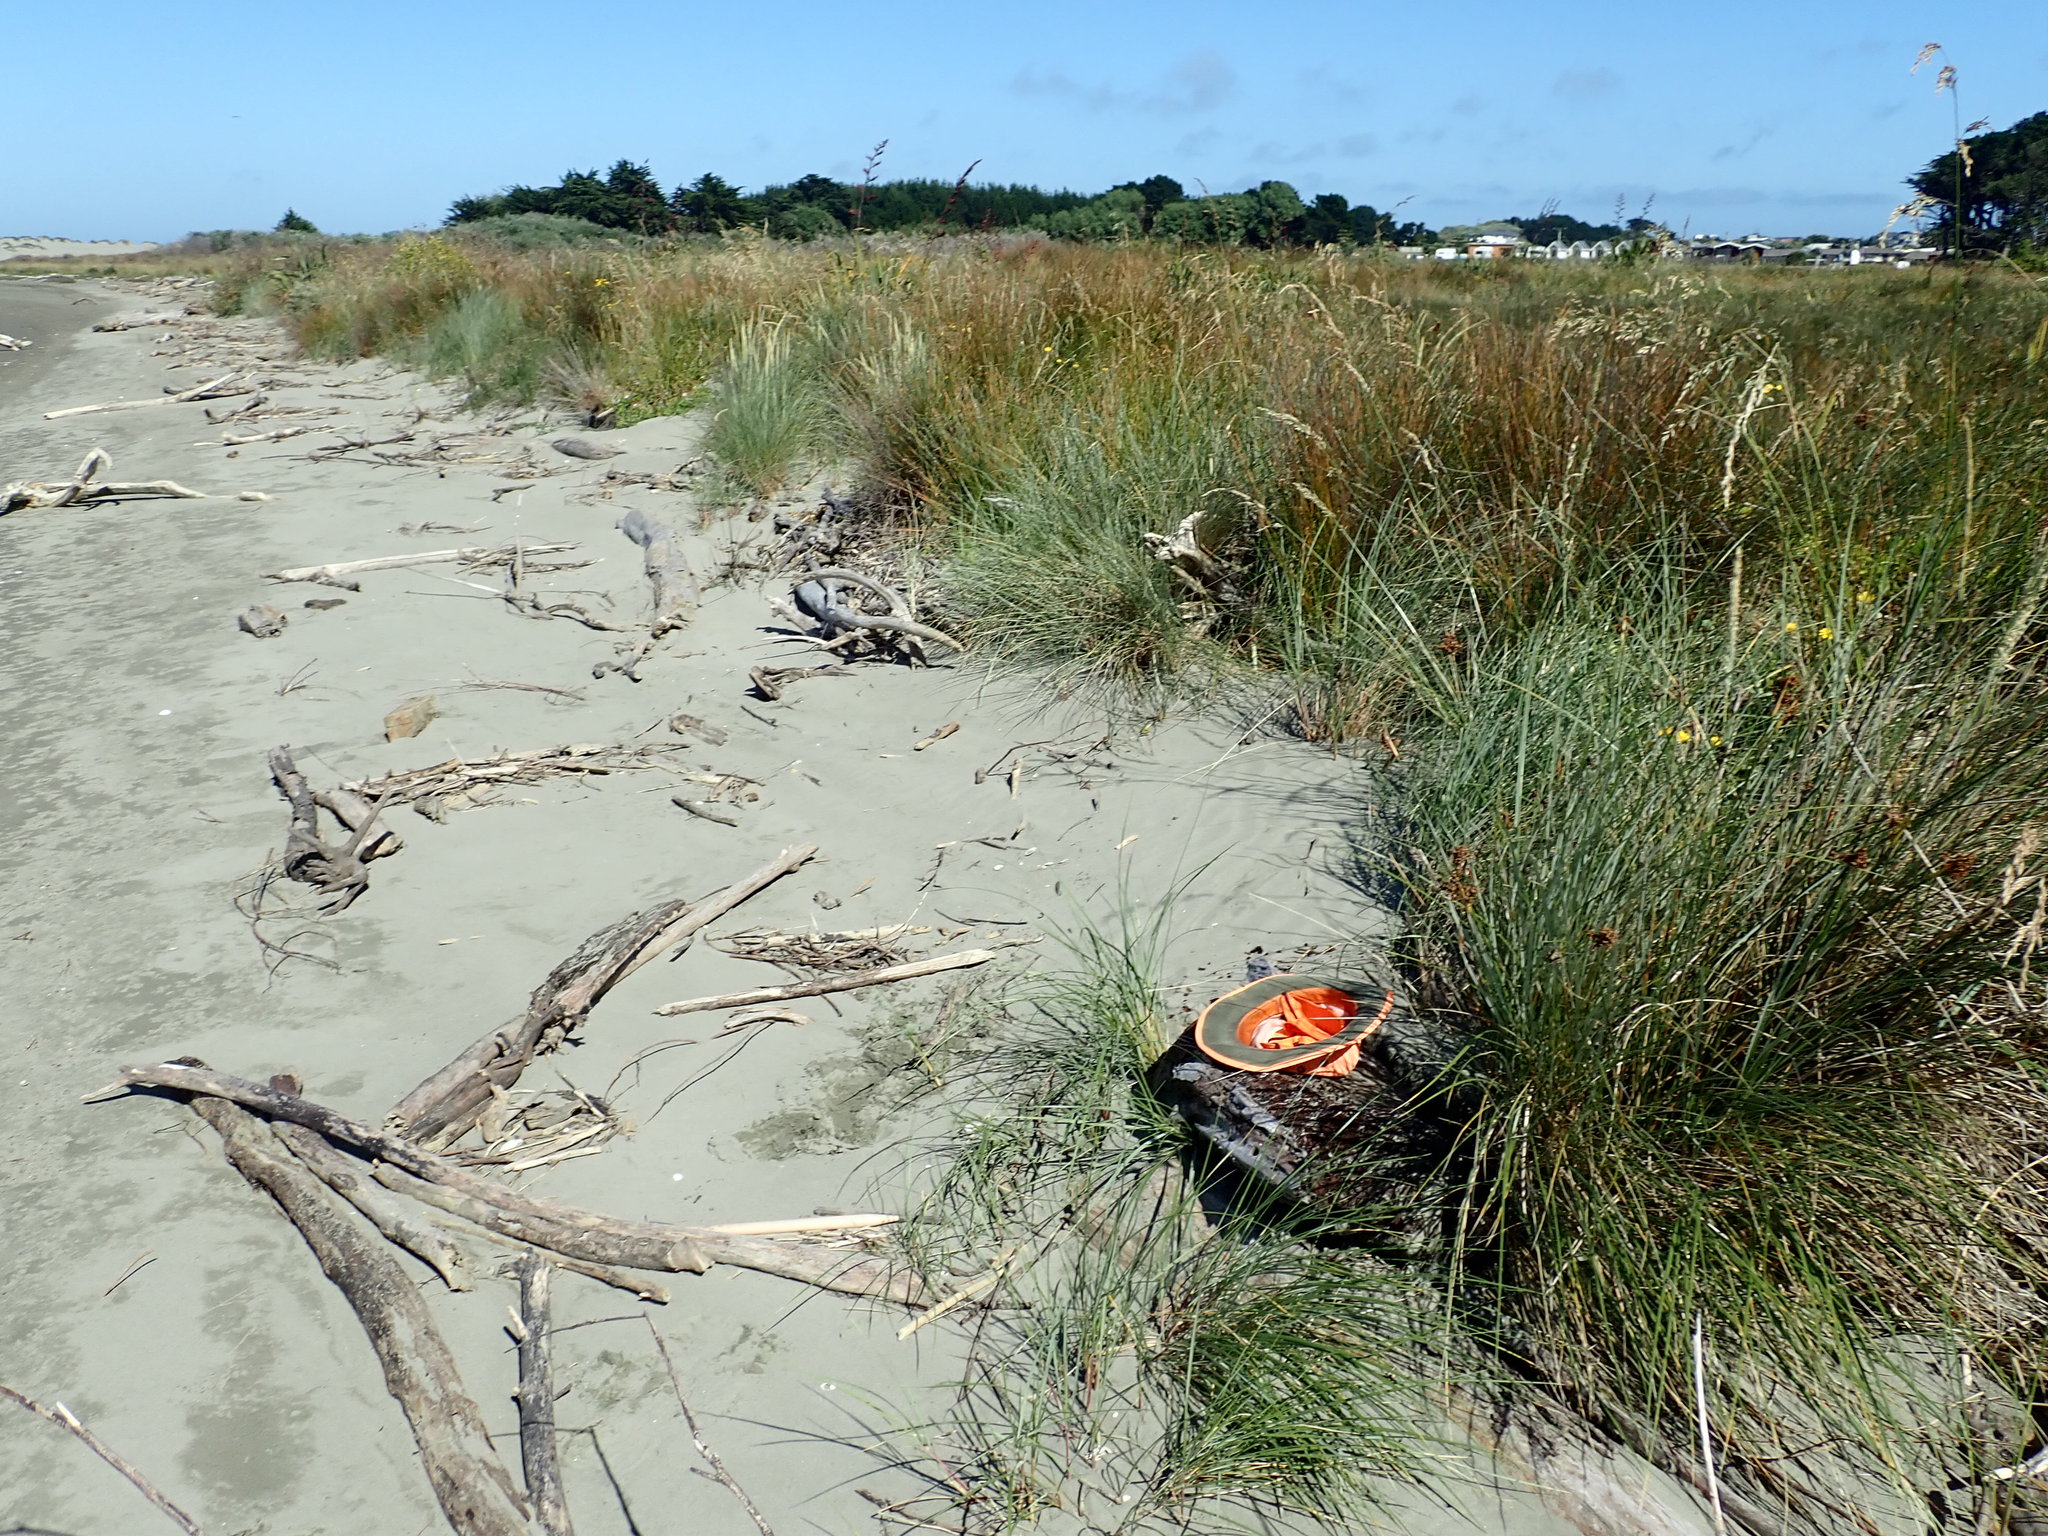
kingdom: Animalia
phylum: Arthropoda
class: Insecta
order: Coleoptera
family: Scarabaeidae
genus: Pericoptus
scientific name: Pericoptus truncatus
